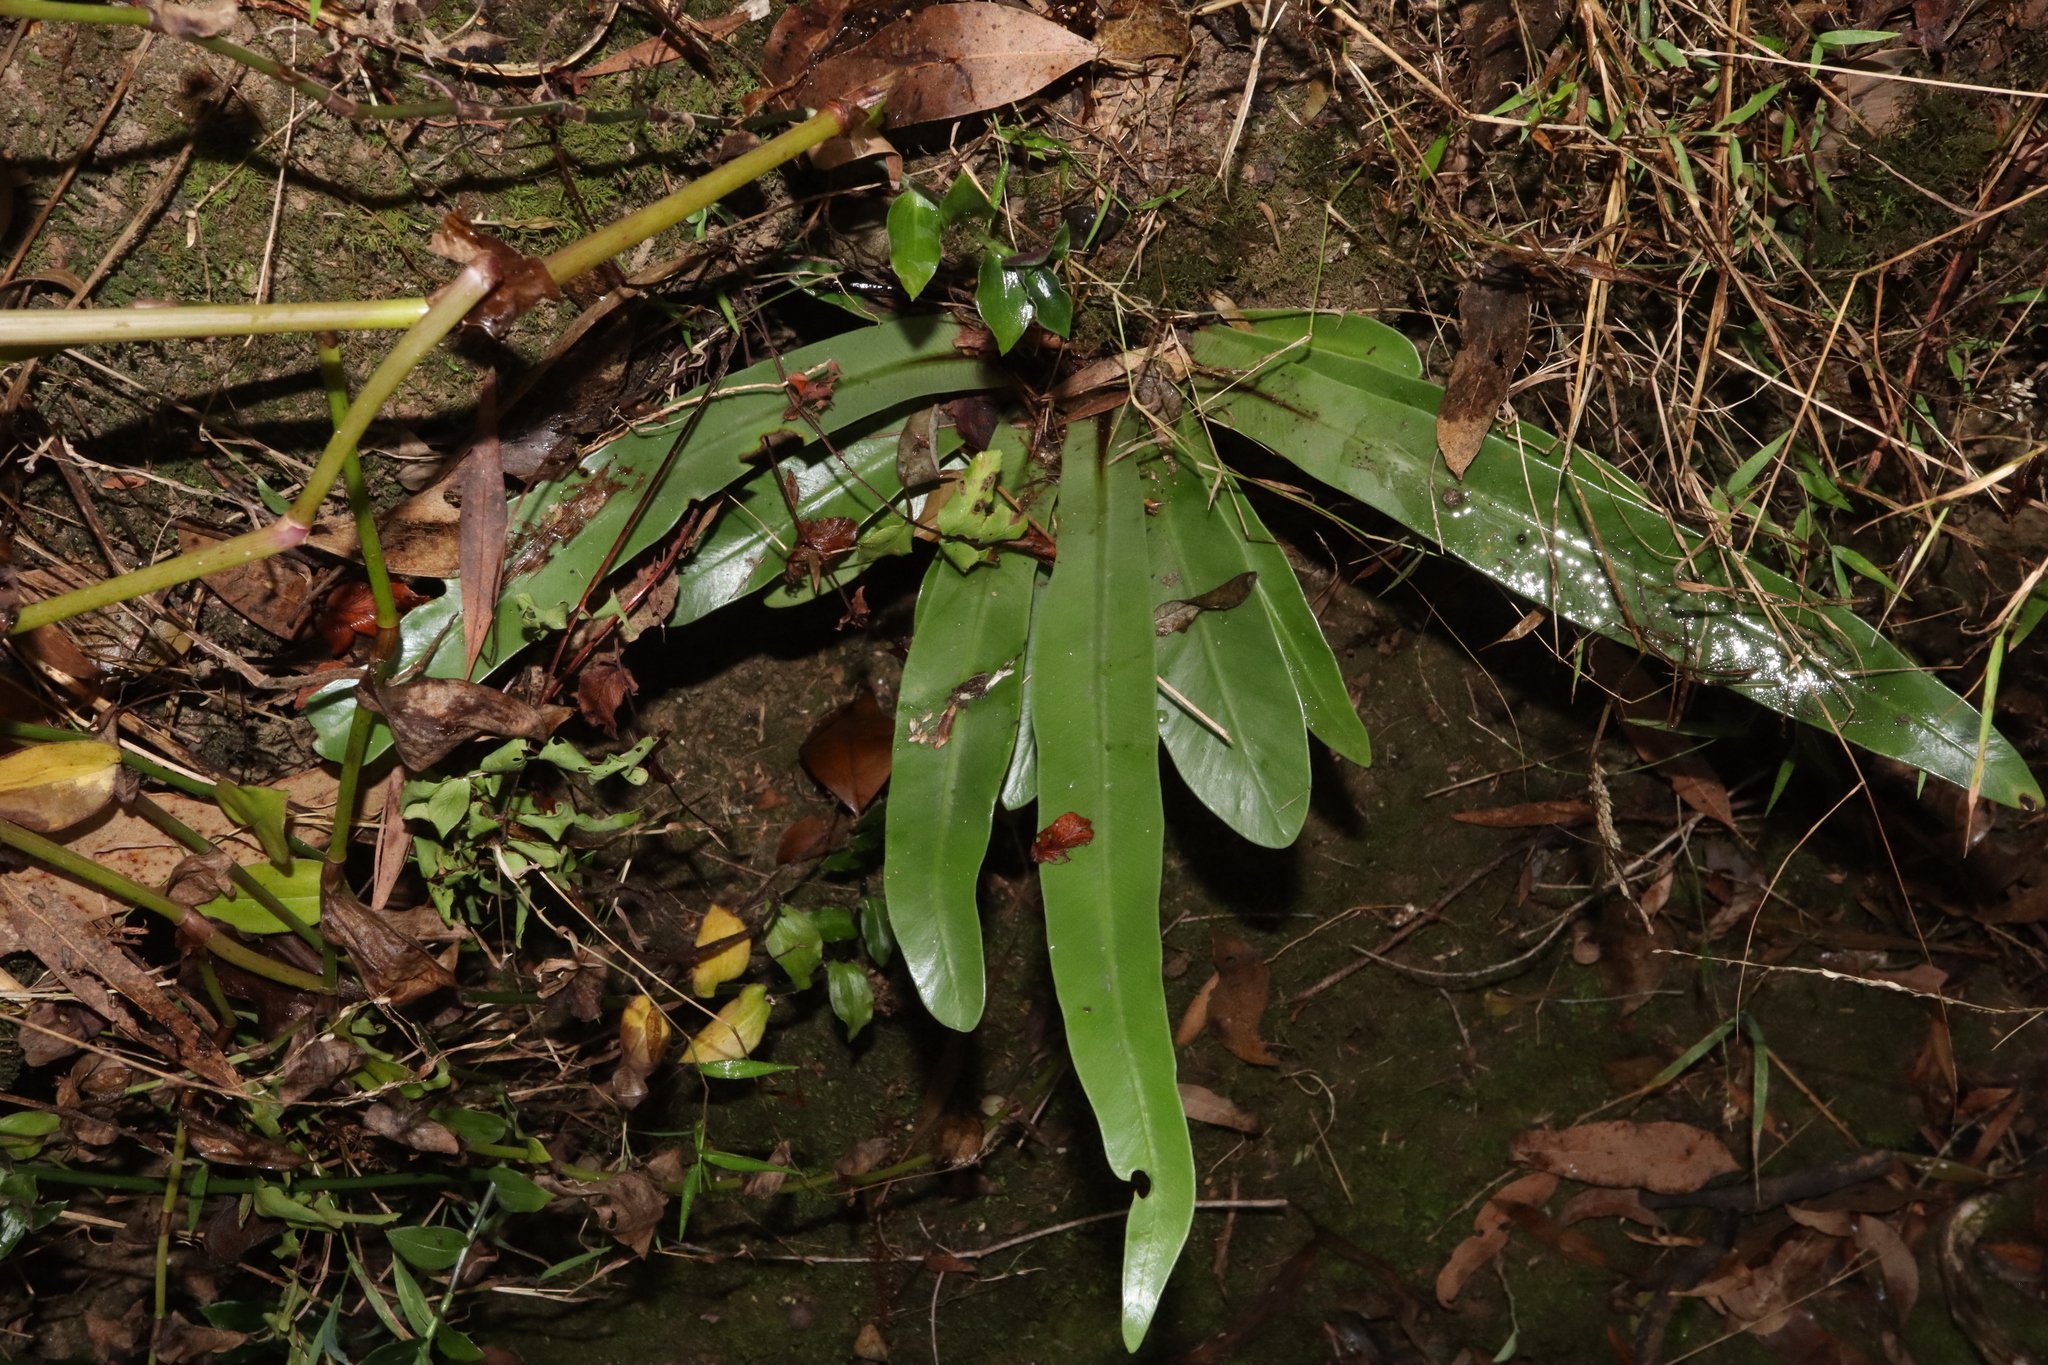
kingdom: Plantae
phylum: Tracheophyta
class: Polypodiopsida
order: Polypodiales
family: Aspleniaceae
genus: Asplenium
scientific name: Asplenium australasicum
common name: Bird's-nest fern
